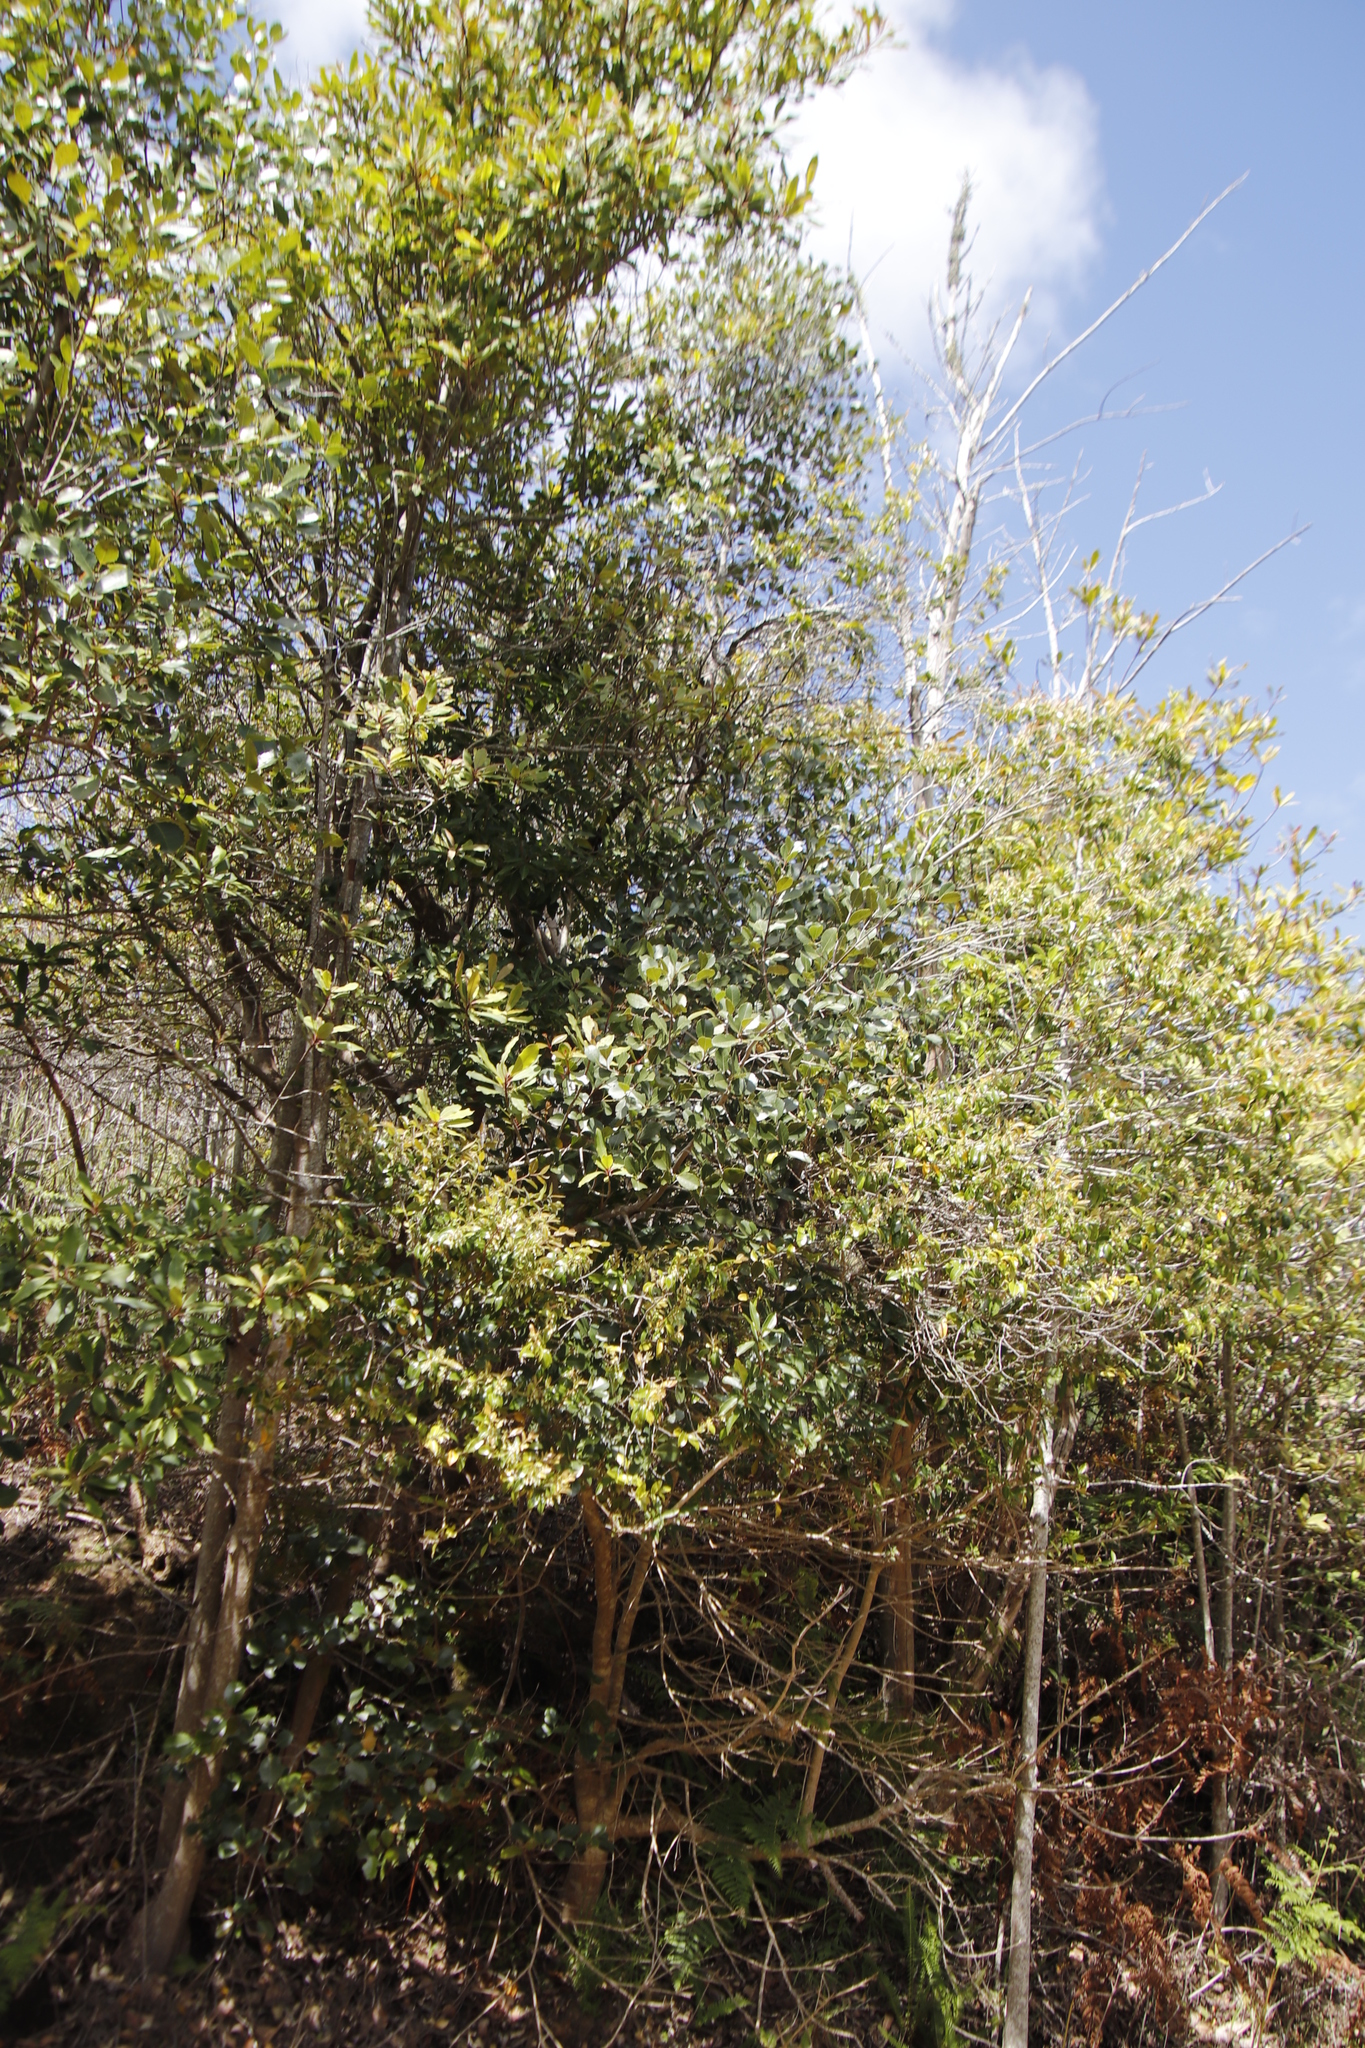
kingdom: Plantae
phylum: Tracheophyta
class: Magnoliopsida
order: Celastrales
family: Celastraceae
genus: Cassine
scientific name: Cassine peragua
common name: Cape saffron
